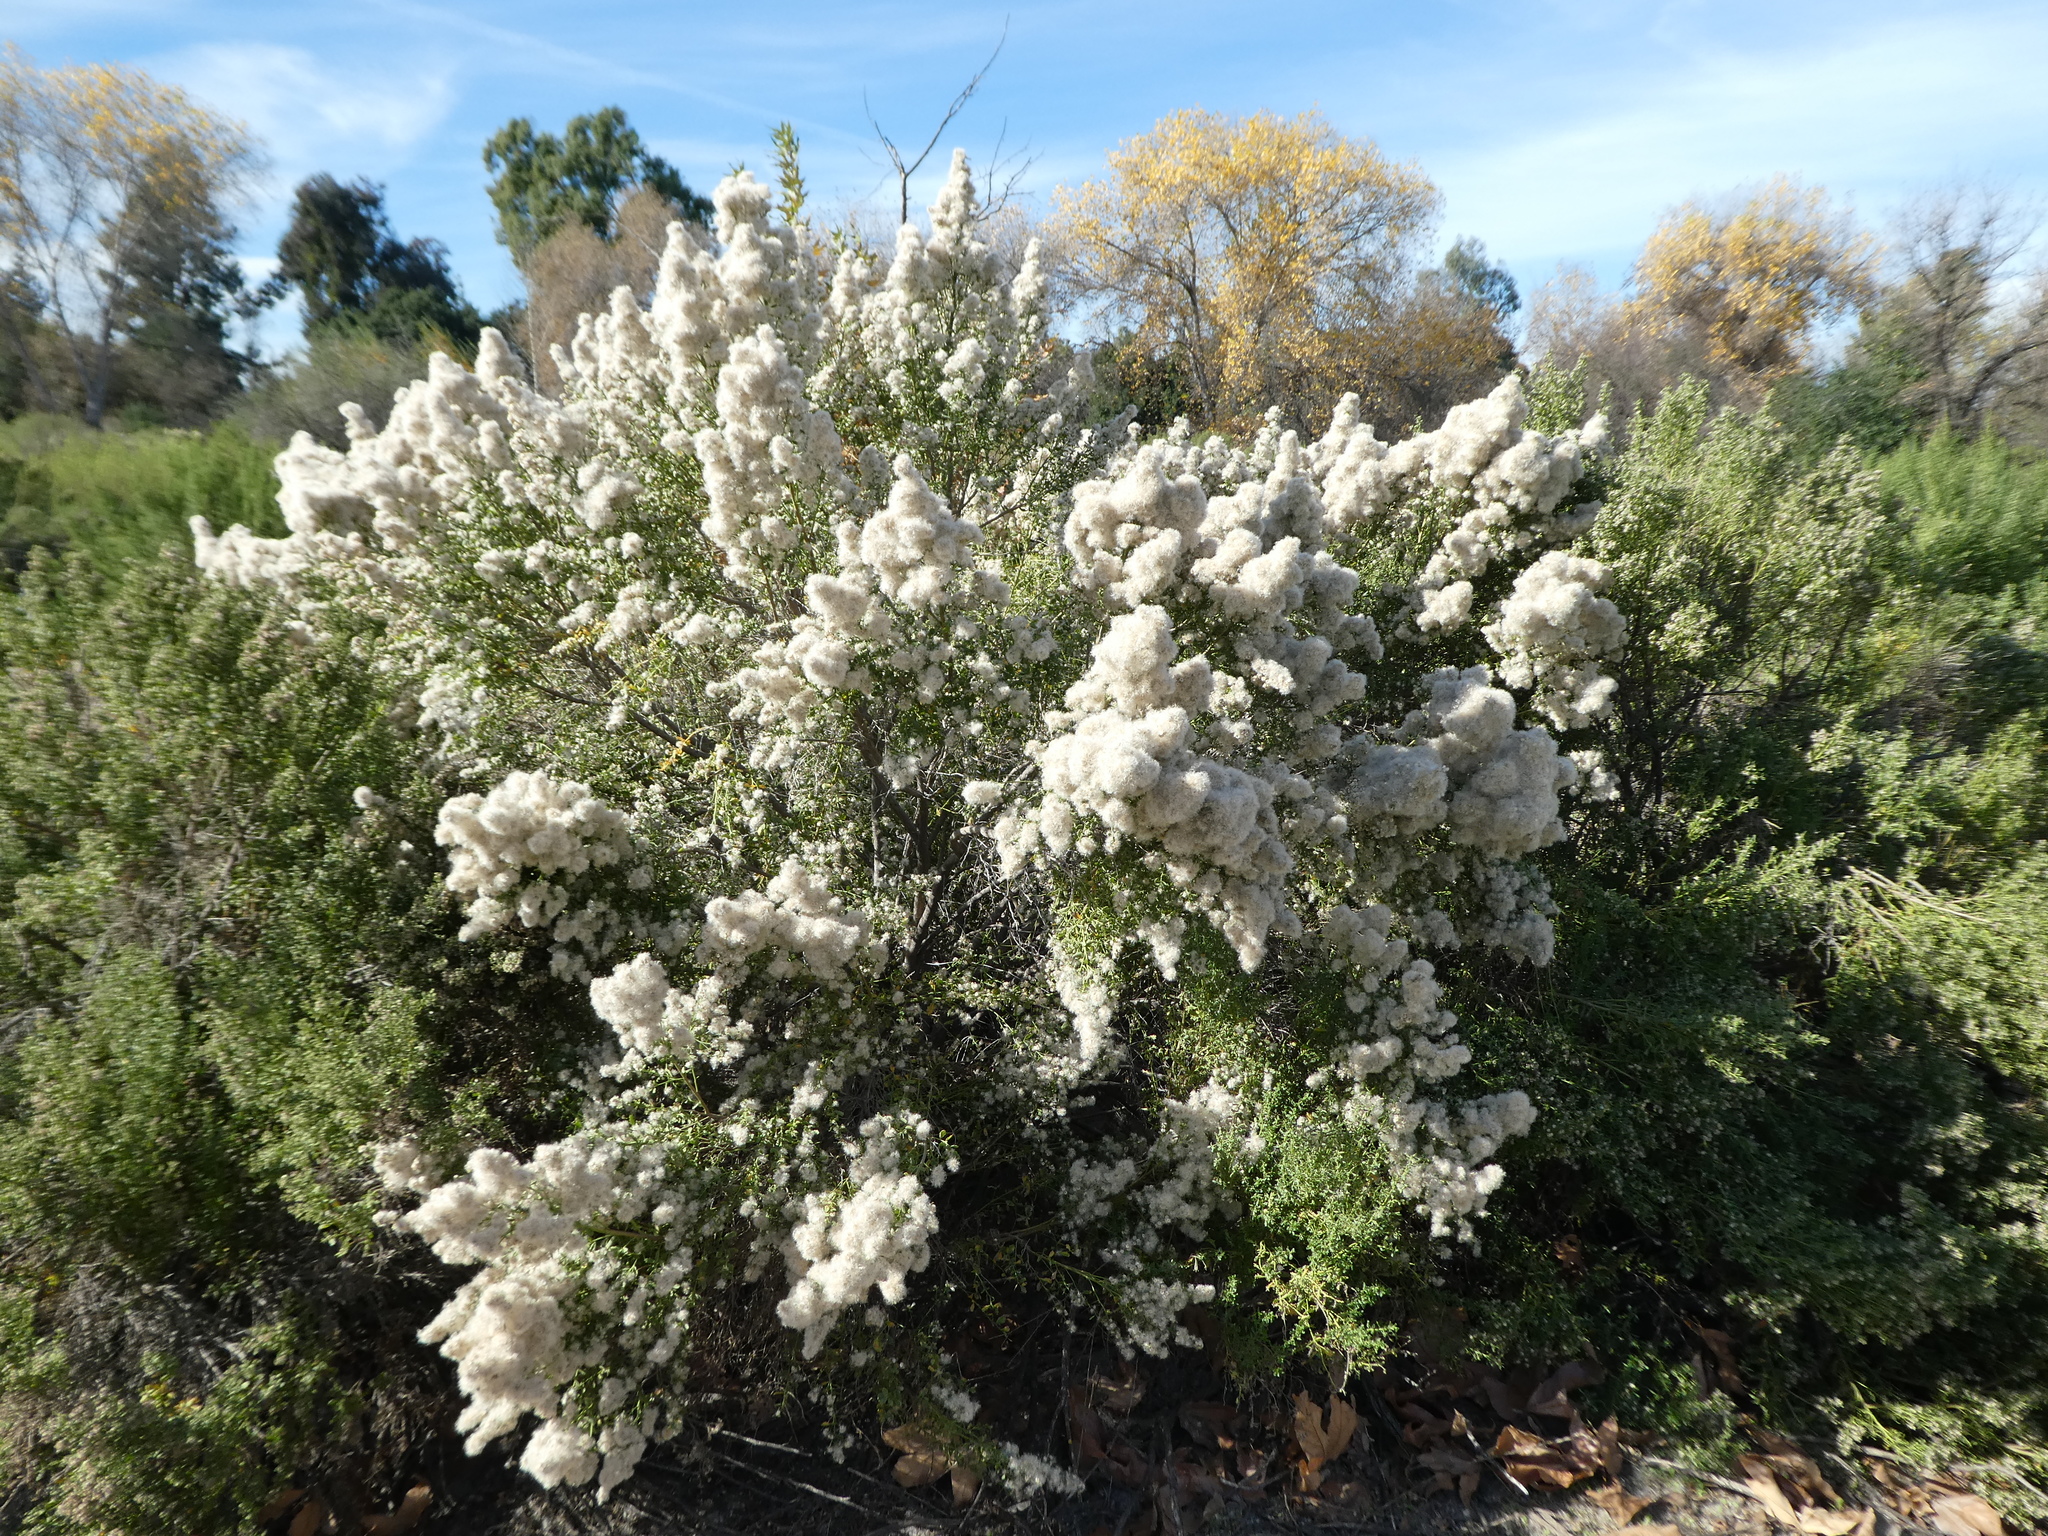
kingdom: Plantae
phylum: Tracheophyta
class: Magnoliopsida
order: Asterales
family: Asteraceae
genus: Baccharis
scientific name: Baccharis pilularis
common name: Coyotebrush
